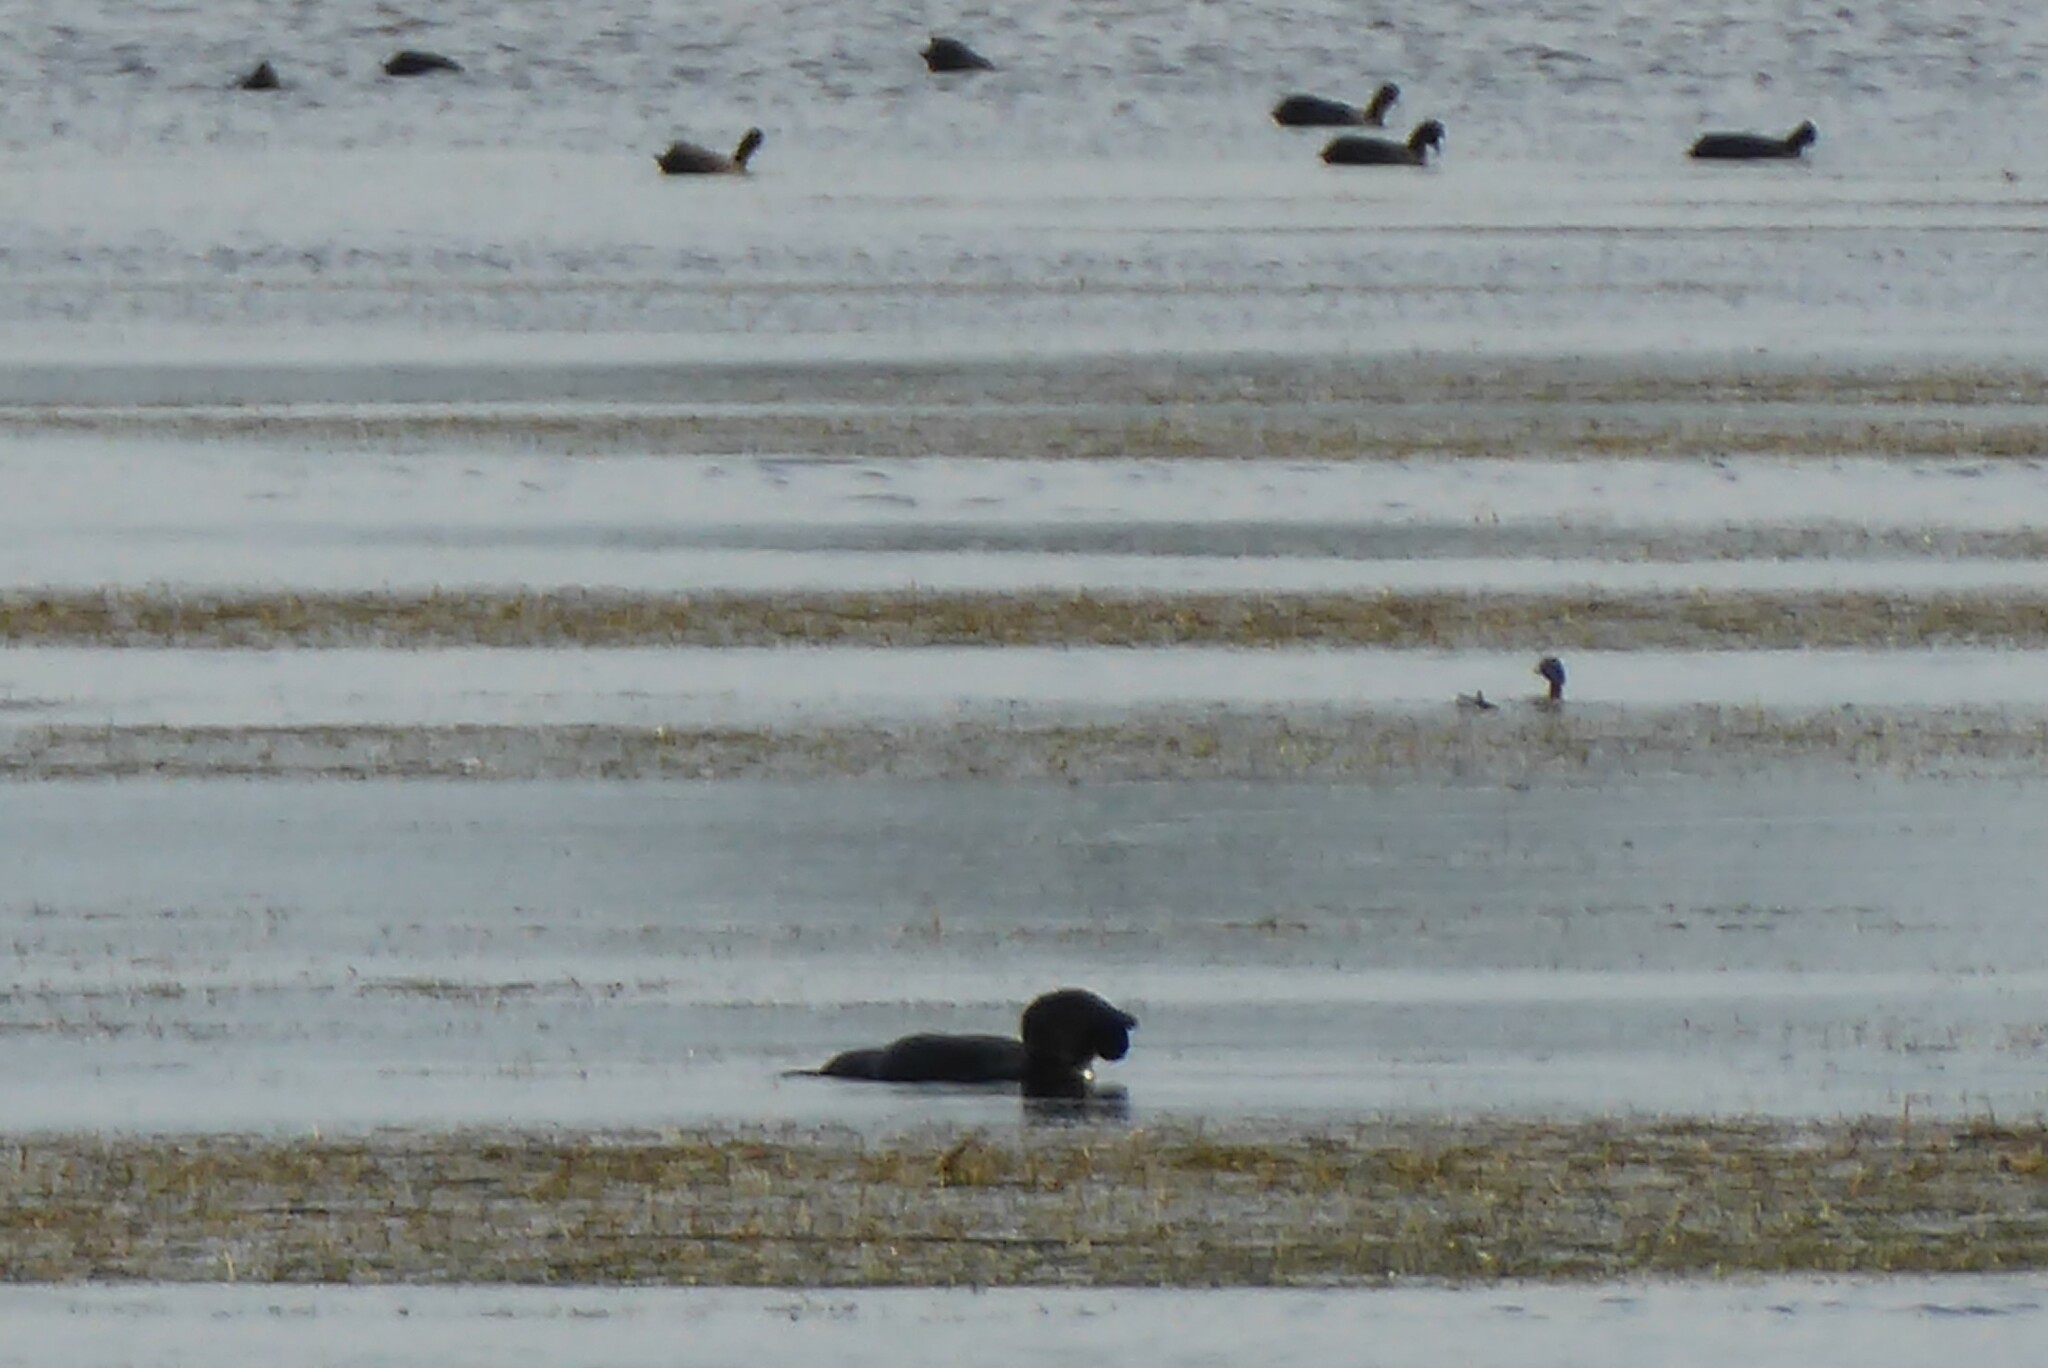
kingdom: Animalia
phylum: Chordata
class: Aves
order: Anseriformes
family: Anatidae
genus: Biziura
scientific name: Biziura lobata
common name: Musk duck
